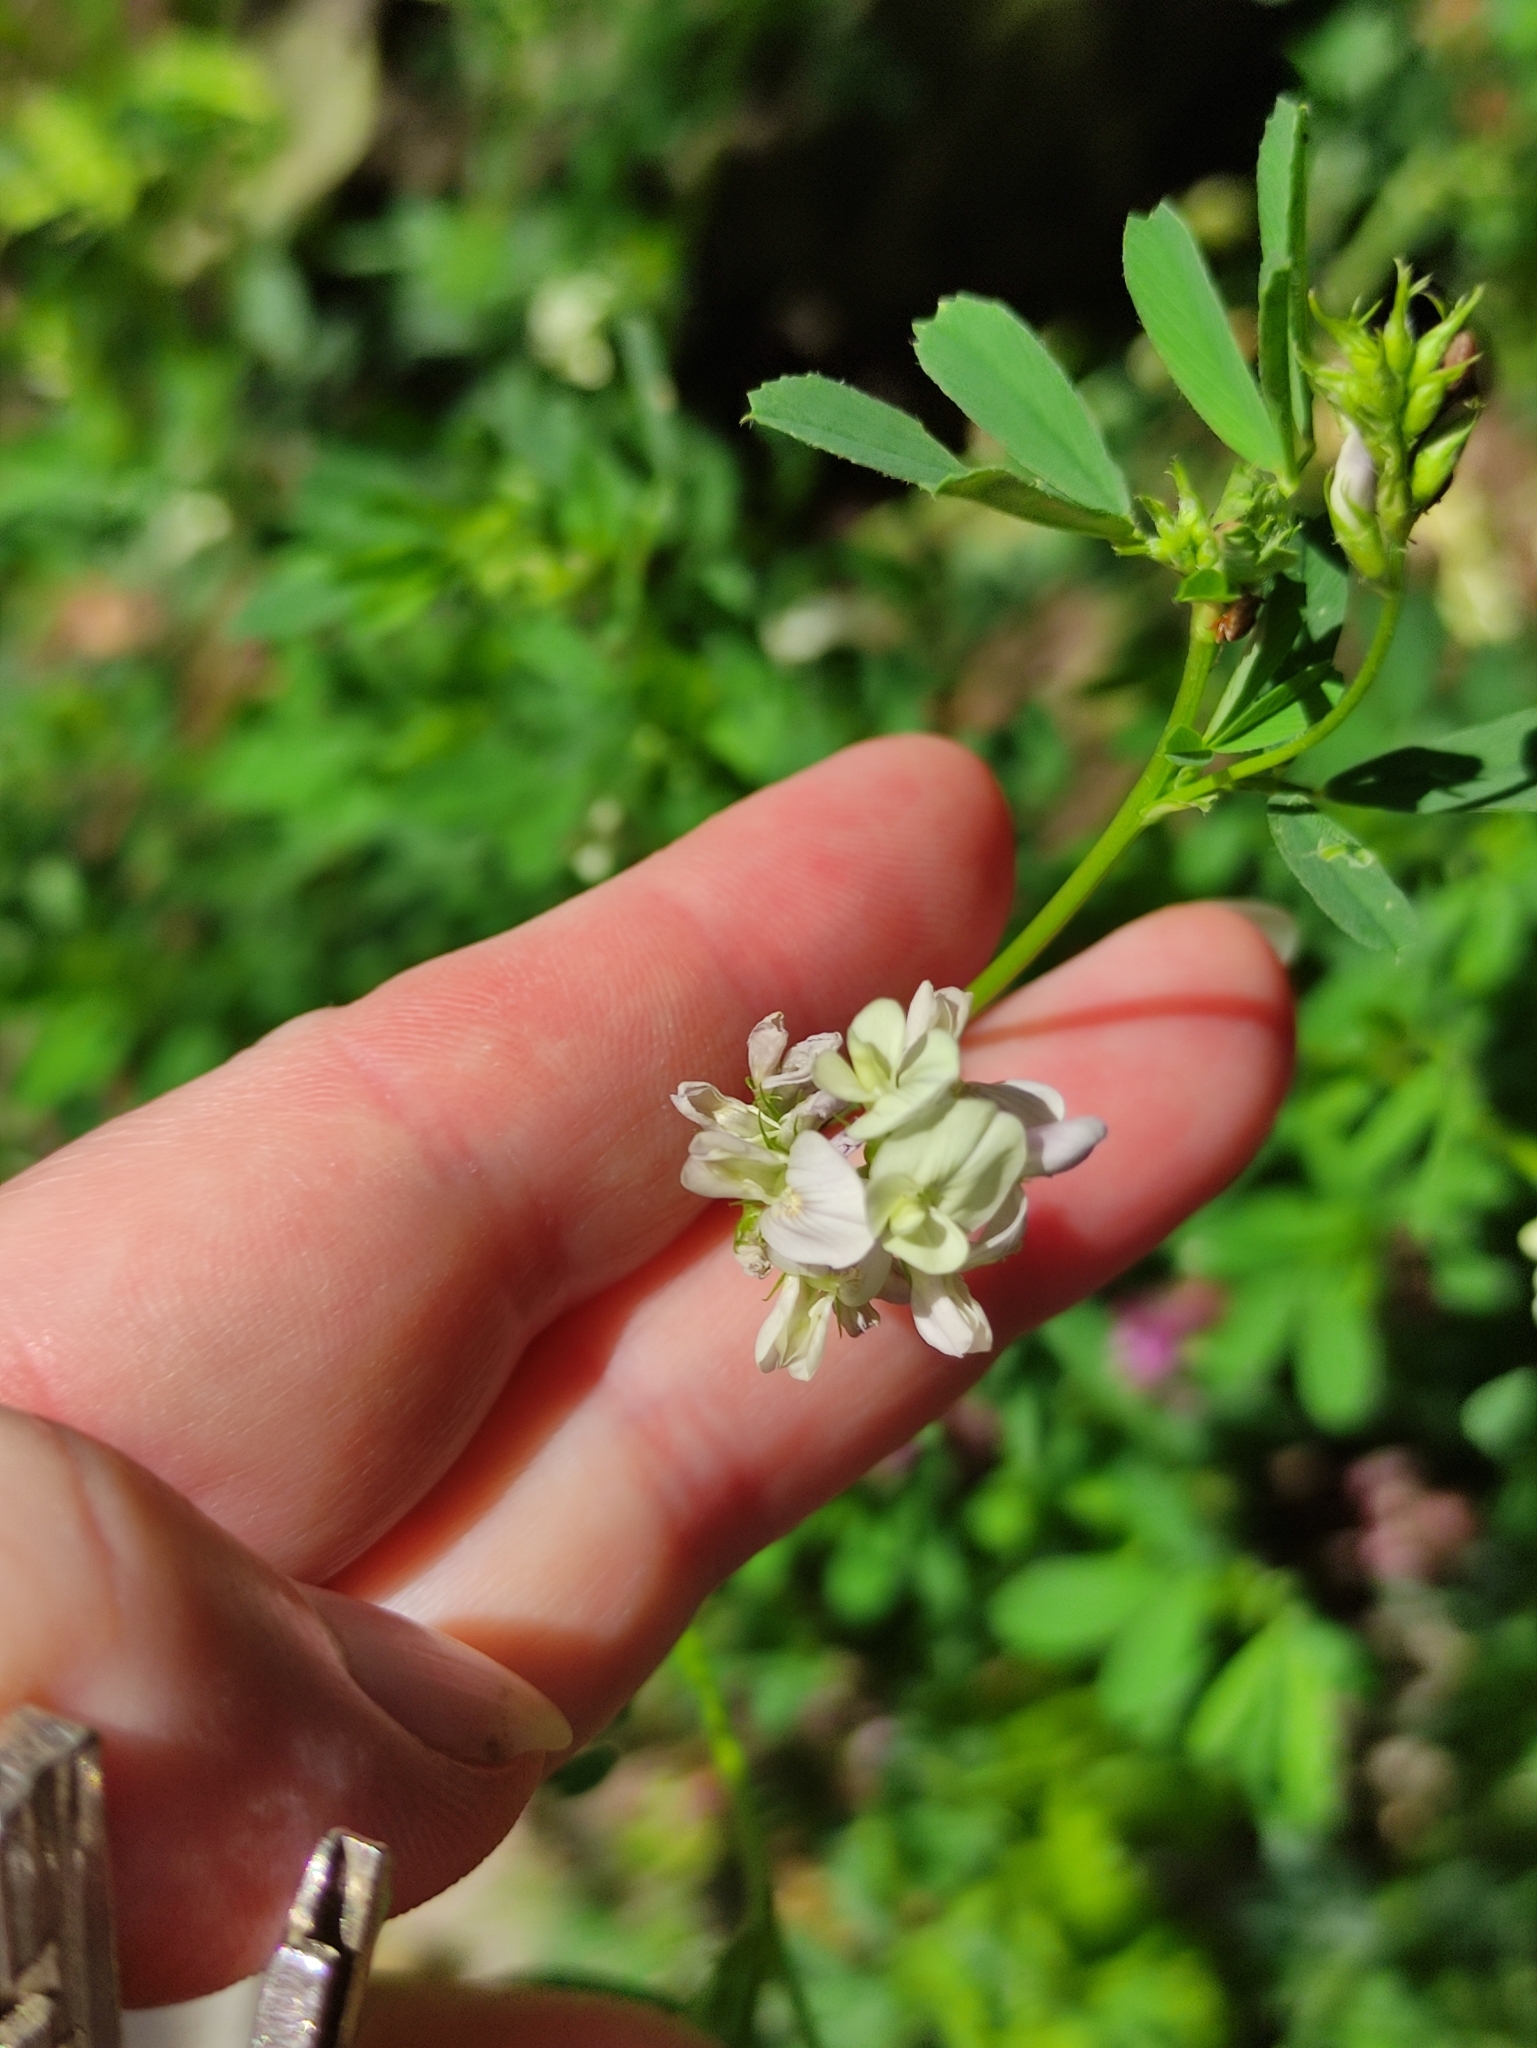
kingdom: Plantae
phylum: Tracheophyta
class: Magnoliopsida
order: Fabales
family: Fabaceae
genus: Medicago
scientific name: Medicago varia
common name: Sand lucerne
